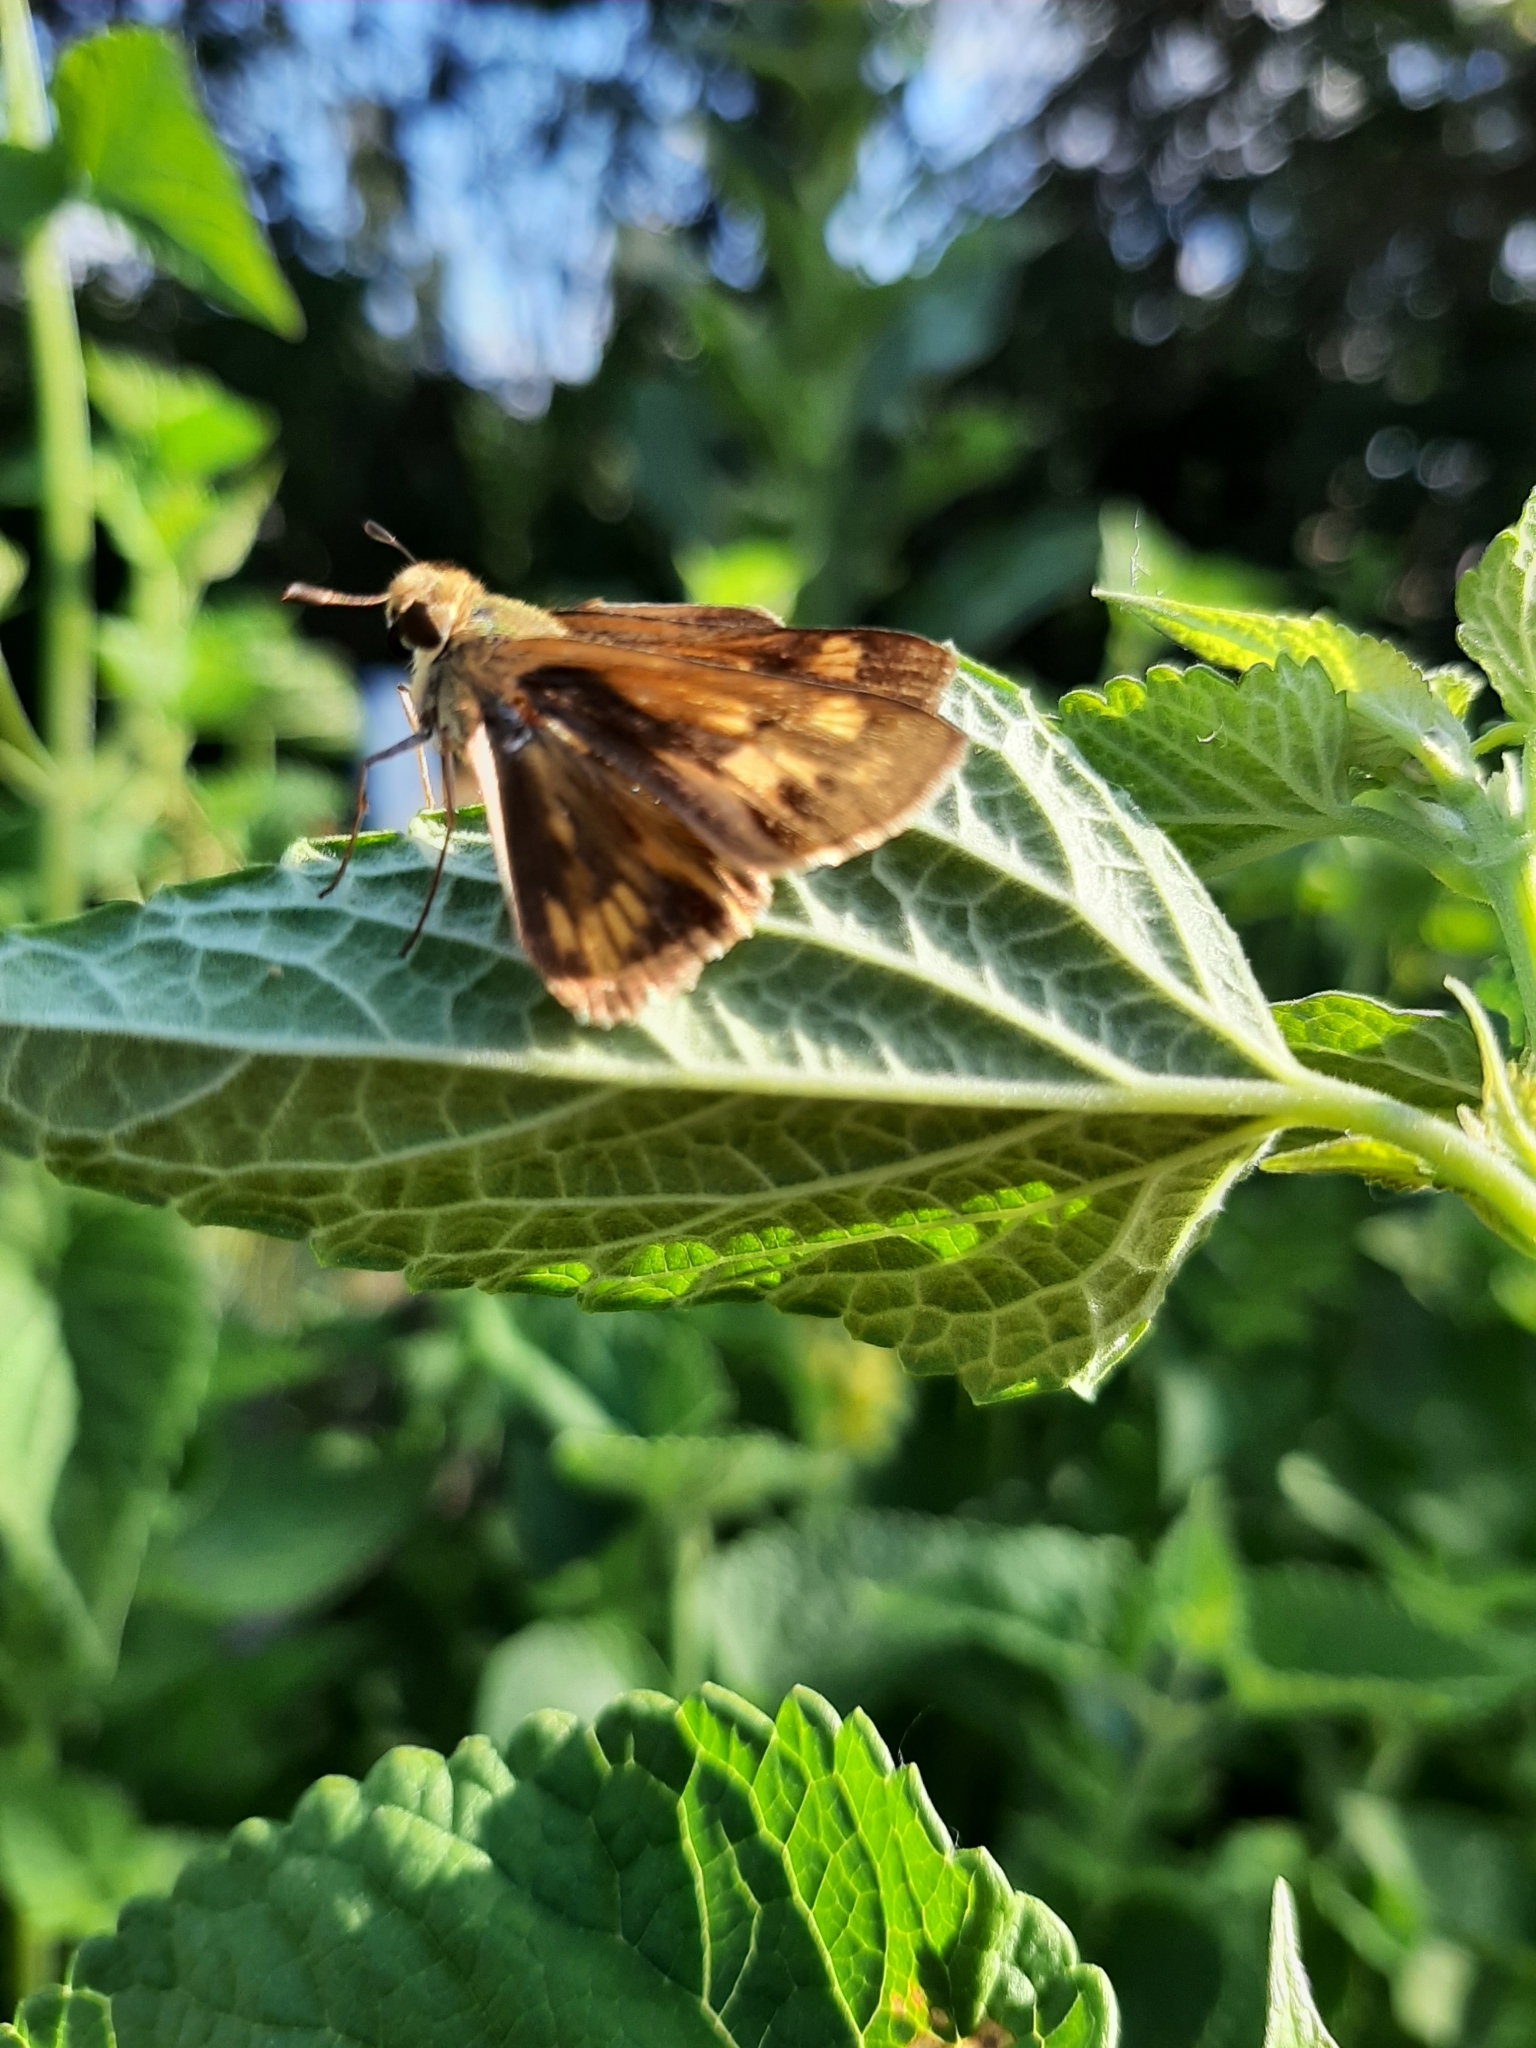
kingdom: Animalia
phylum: Arthropoda
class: Insecta
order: Lepidoptera
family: Hesperiidae
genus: Polites
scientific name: Polites coras
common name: Peck's skipper
